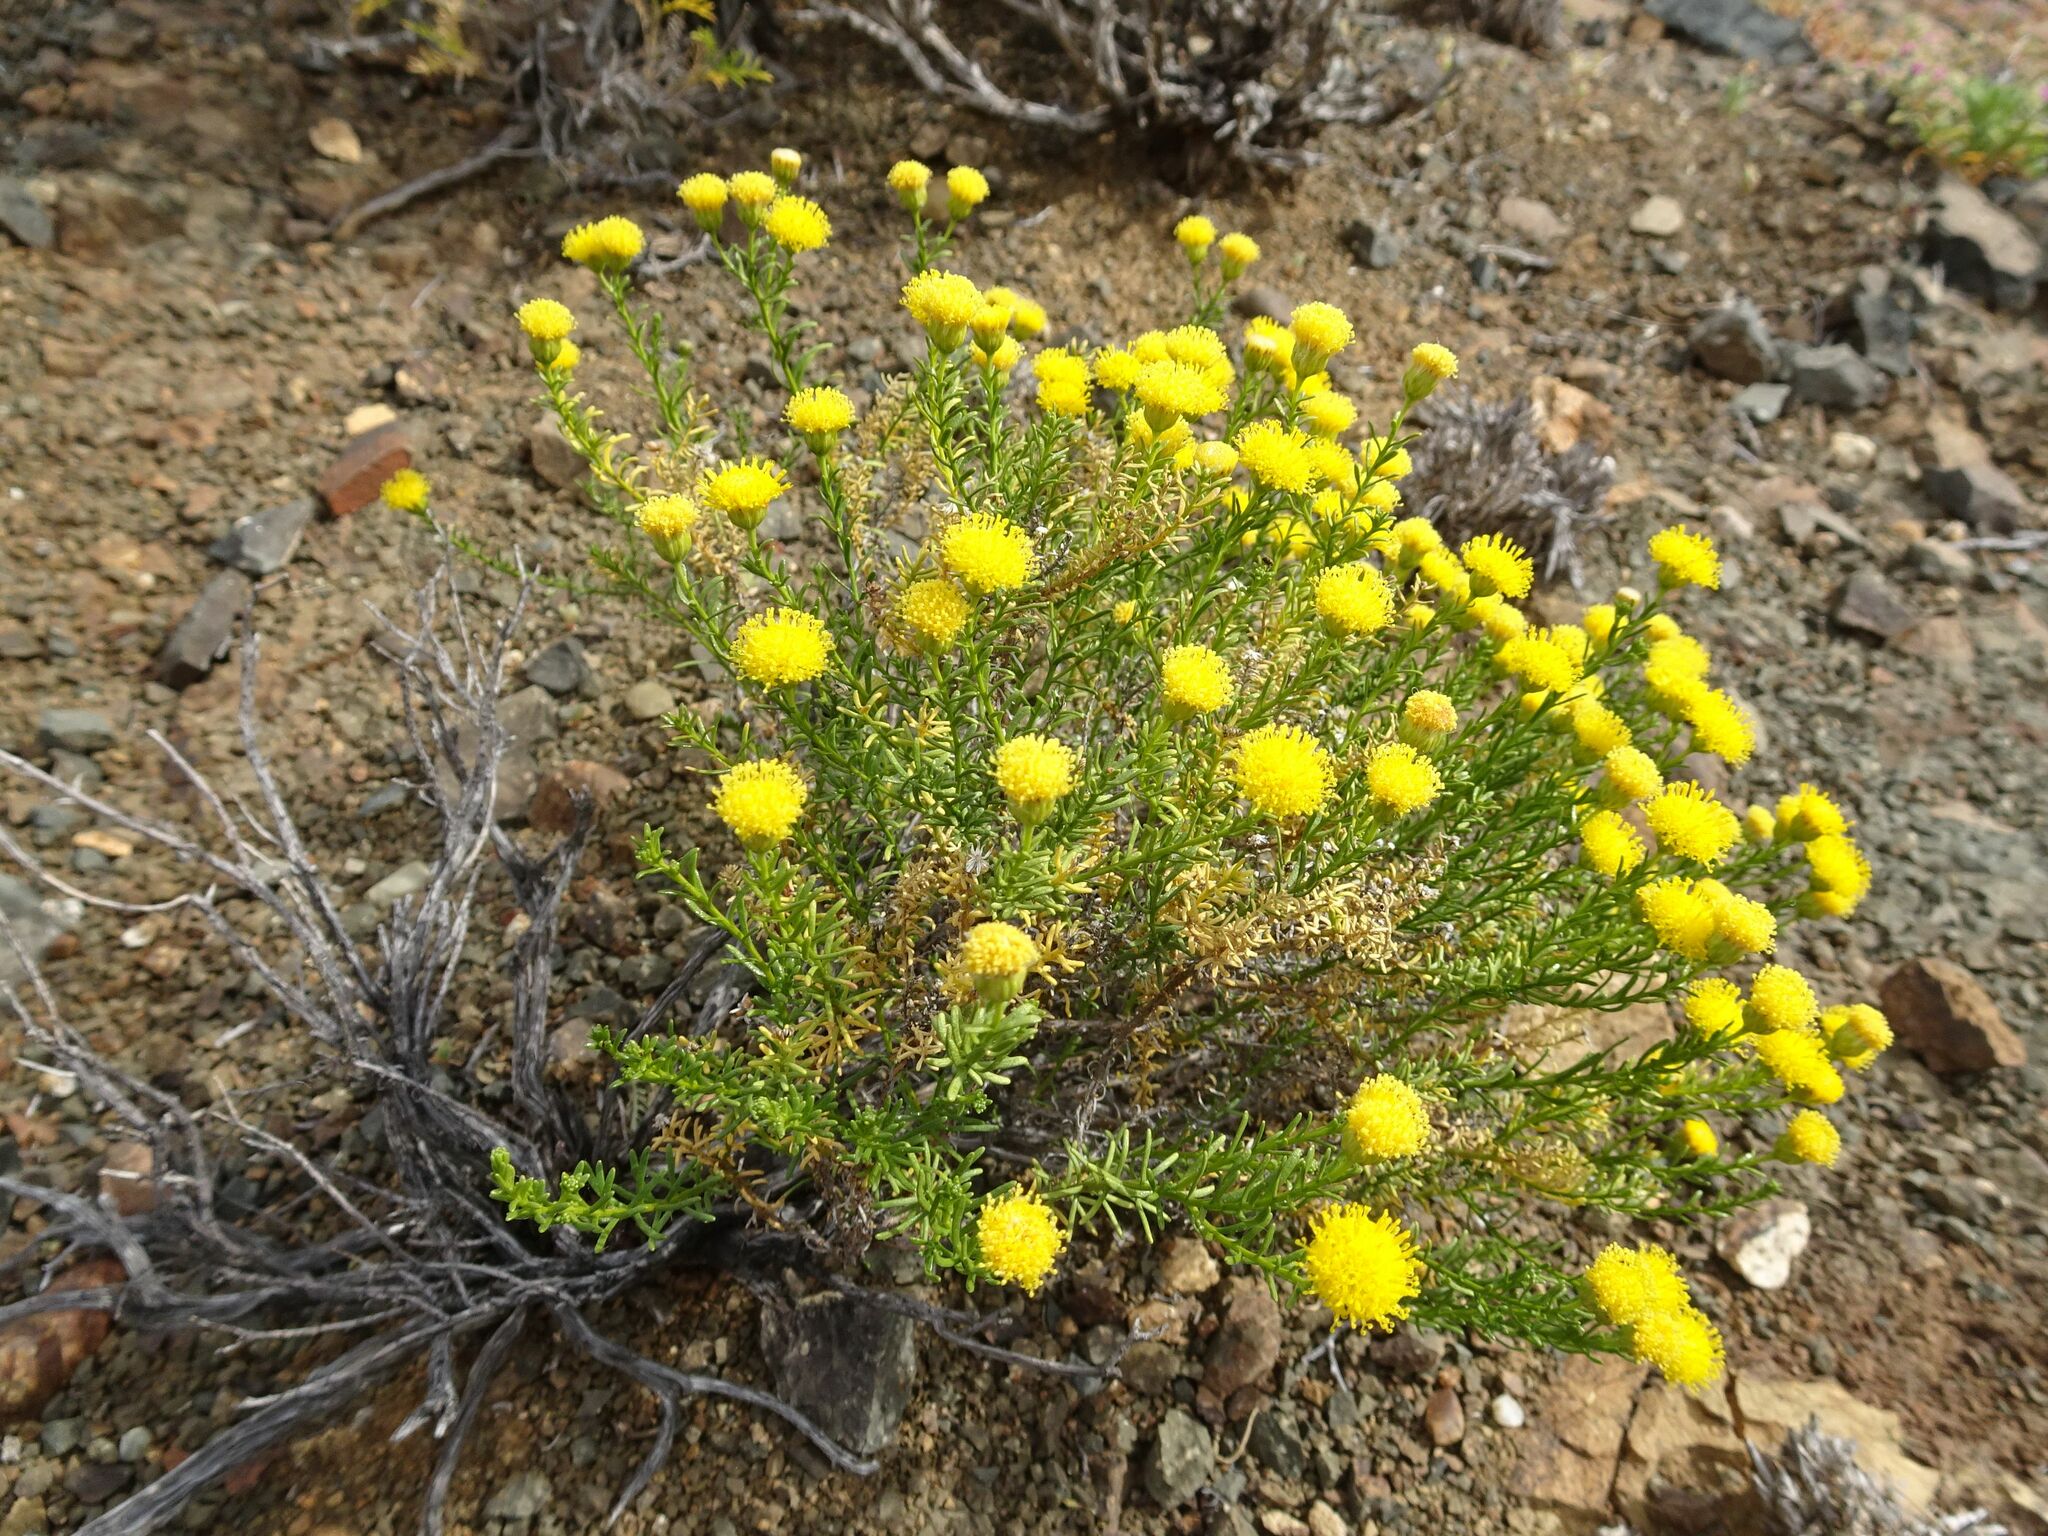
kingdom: Plantae
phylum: Tracheophyta
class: Magnoliopsida
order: Asterales
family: Asteraceae
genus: Chrysocoma
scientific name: Chrysocoma ciliata
